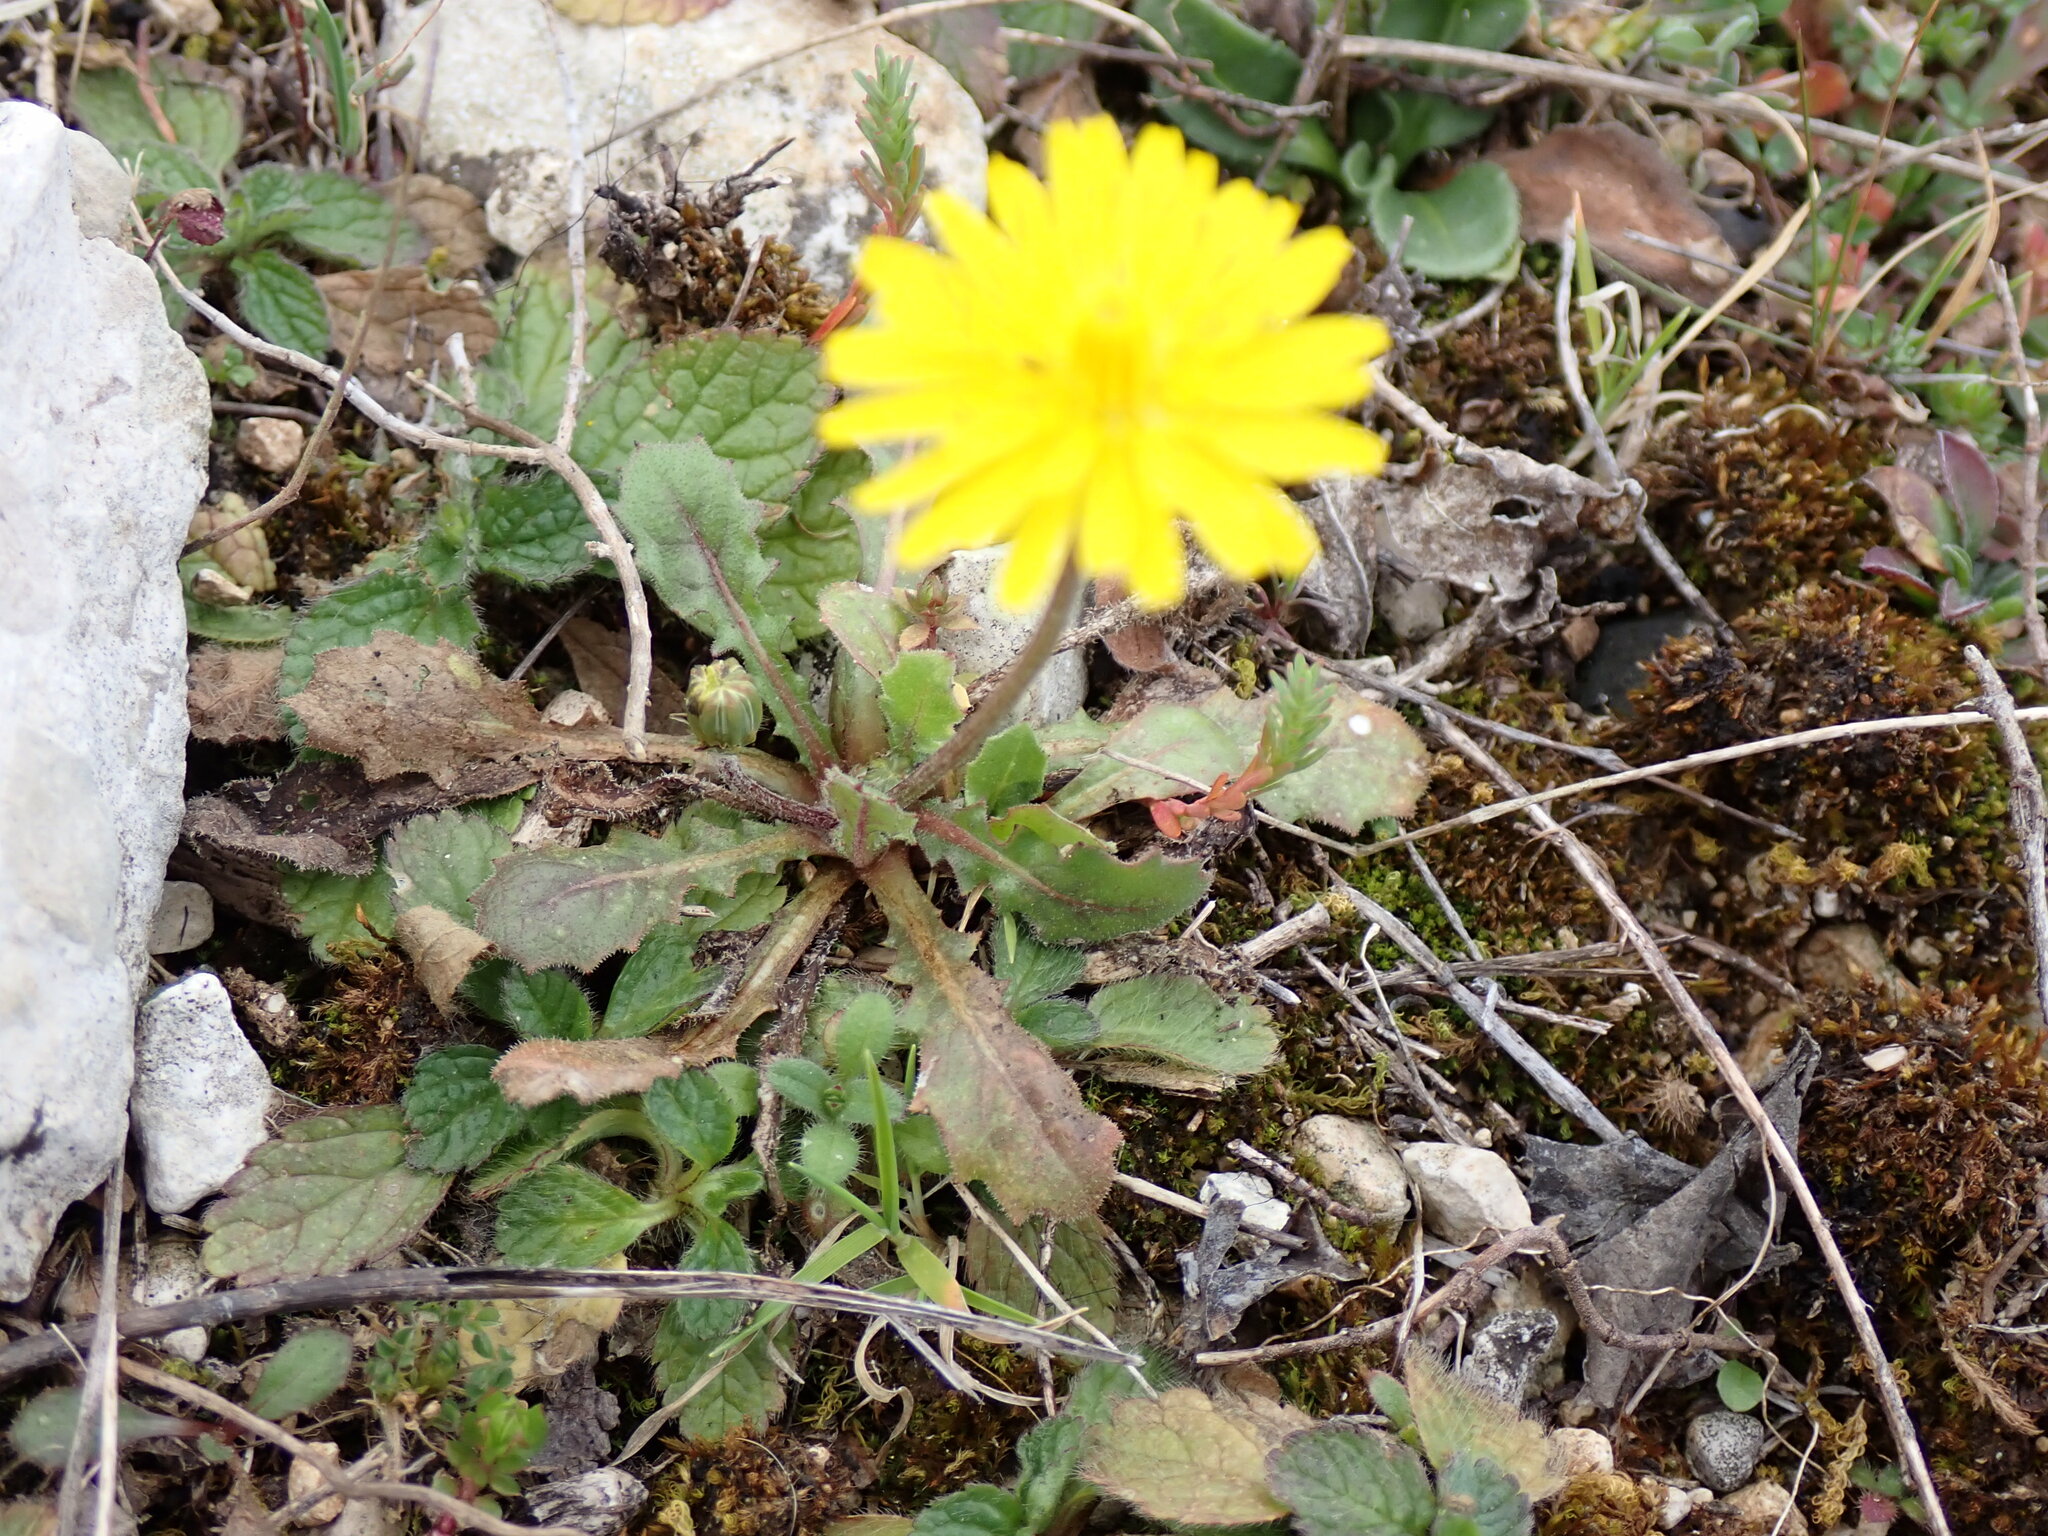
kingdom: Plantae
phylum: Tracheophyta
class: Magnoliopsida
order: Asterales
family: Asteraceae
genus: Crepis
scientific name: Crepis sancta
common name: Hawk's-beard
